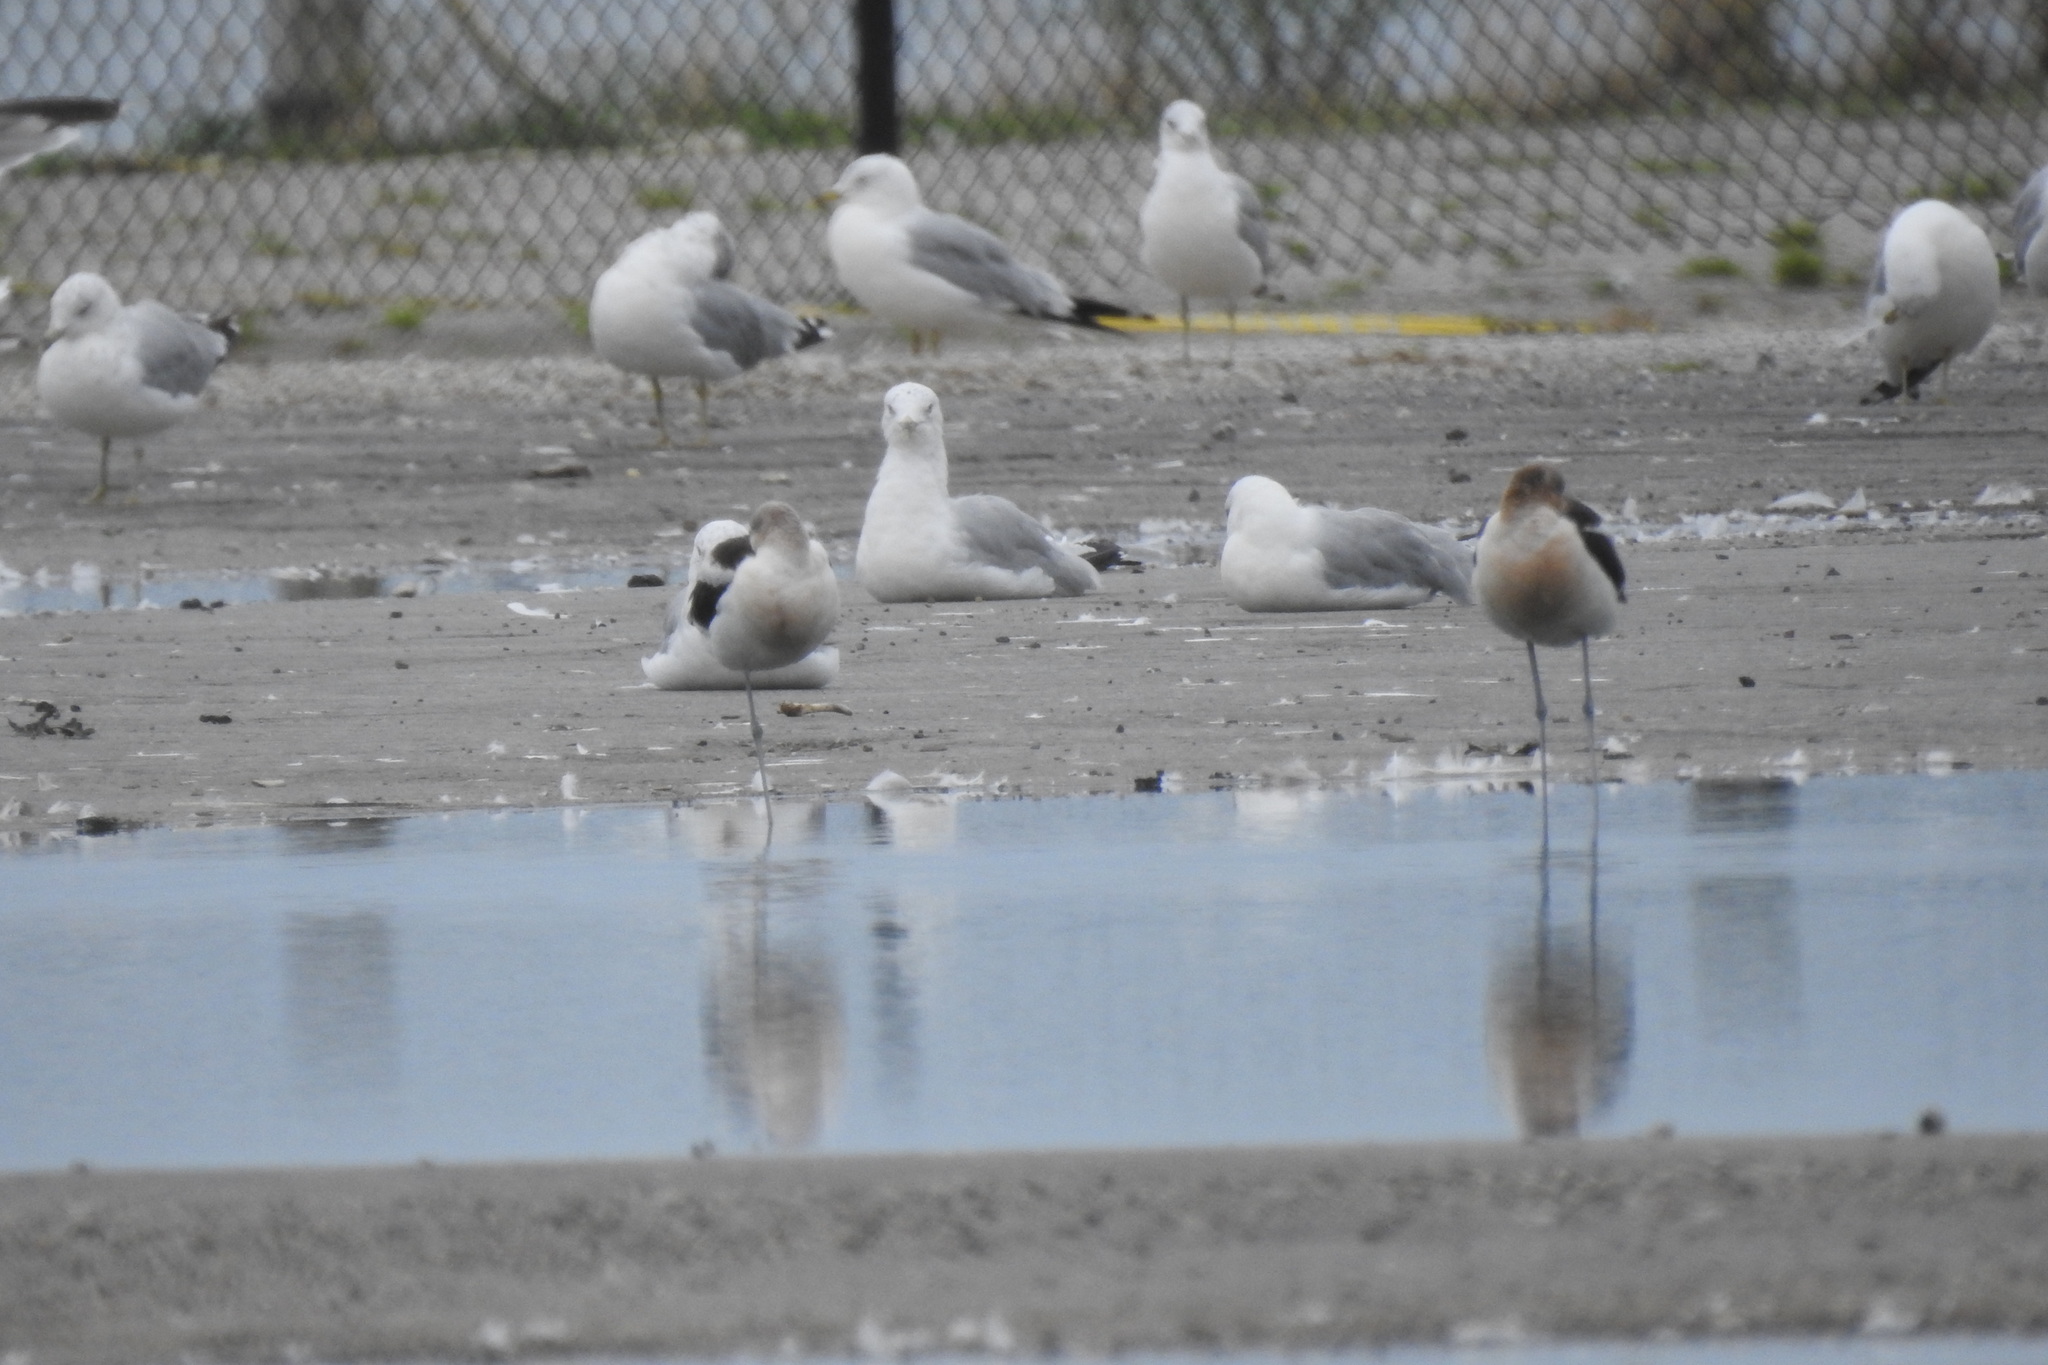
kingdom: Animalia
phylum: Chordata
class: Aves
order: Charadriiformes
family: Recurvirostridae
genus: Recurvirostra
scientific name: Recurvirostra americana
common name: American avocet
